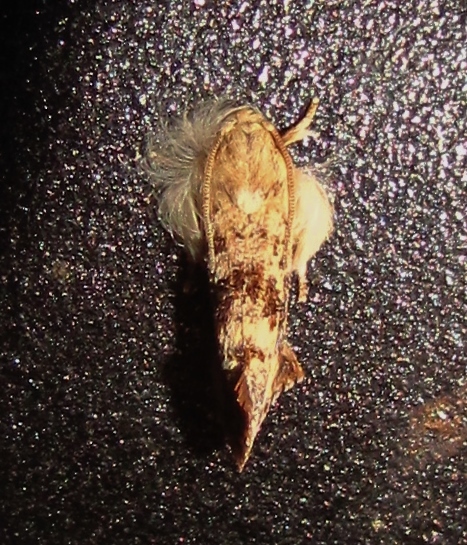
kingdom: Animalia
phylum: Arthropoda
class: Insecta
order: Lepidoptera
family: Tineidae
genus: Acrolophus
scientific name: Acrolophus mycetophagus
